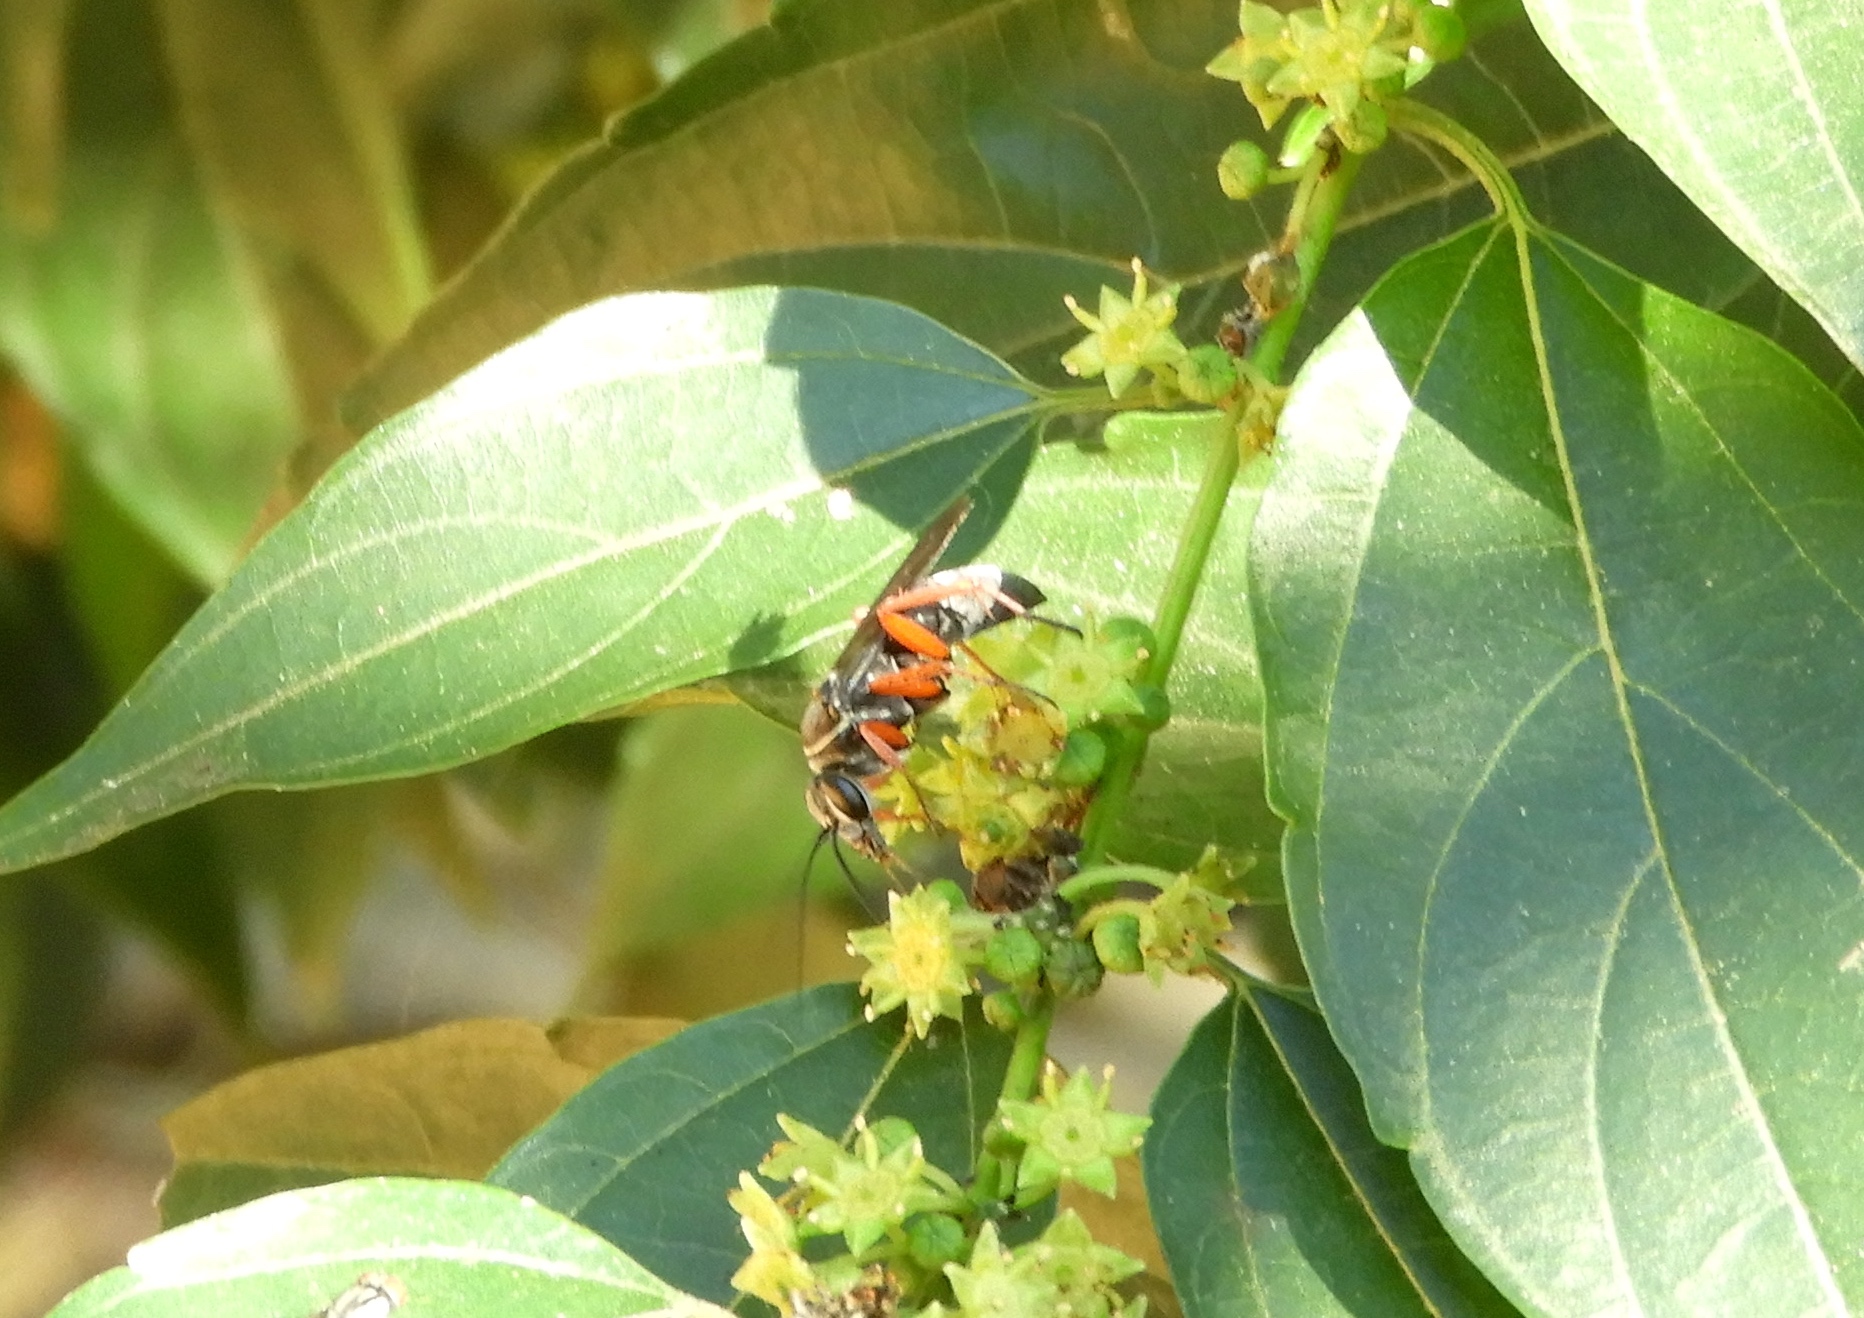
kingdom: Animalia
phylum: Arthropoda
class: Insecta
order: Hymenoptera
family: Pompilidae
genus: Episyron
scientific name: Episyron conterminus
